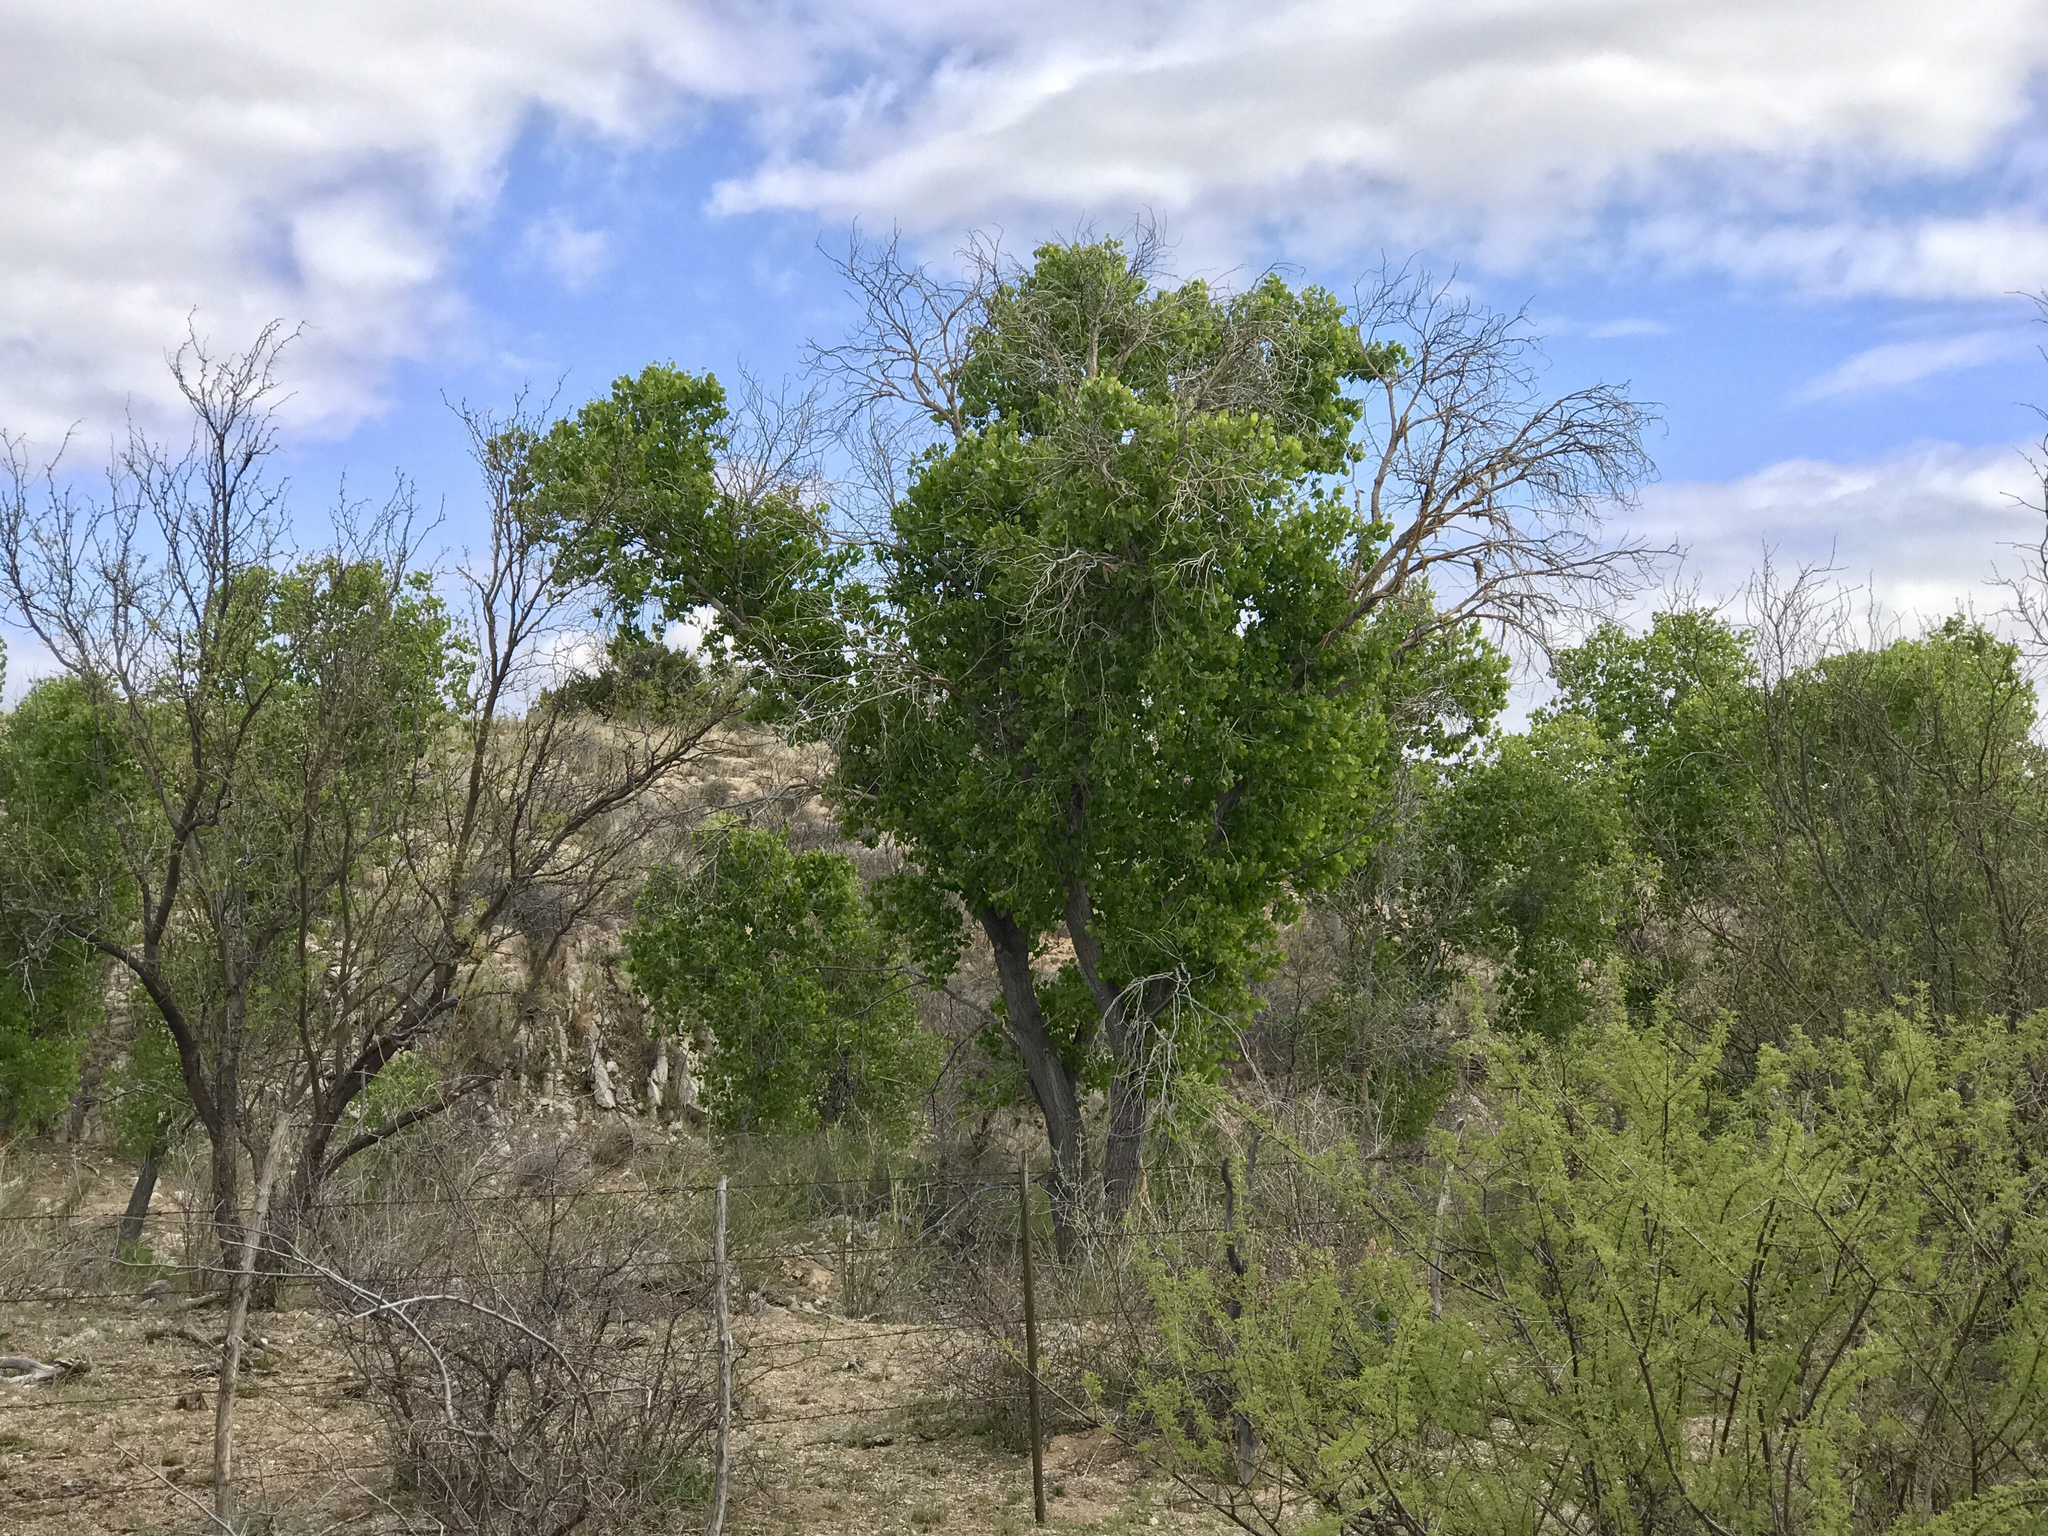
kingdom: Plantae
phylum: Tracheophyta
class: Magnoliopsida
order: Malpighiales
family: Salicaceae
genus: Populus
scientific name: Populus fremontii
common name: Fremont's cottonwood
